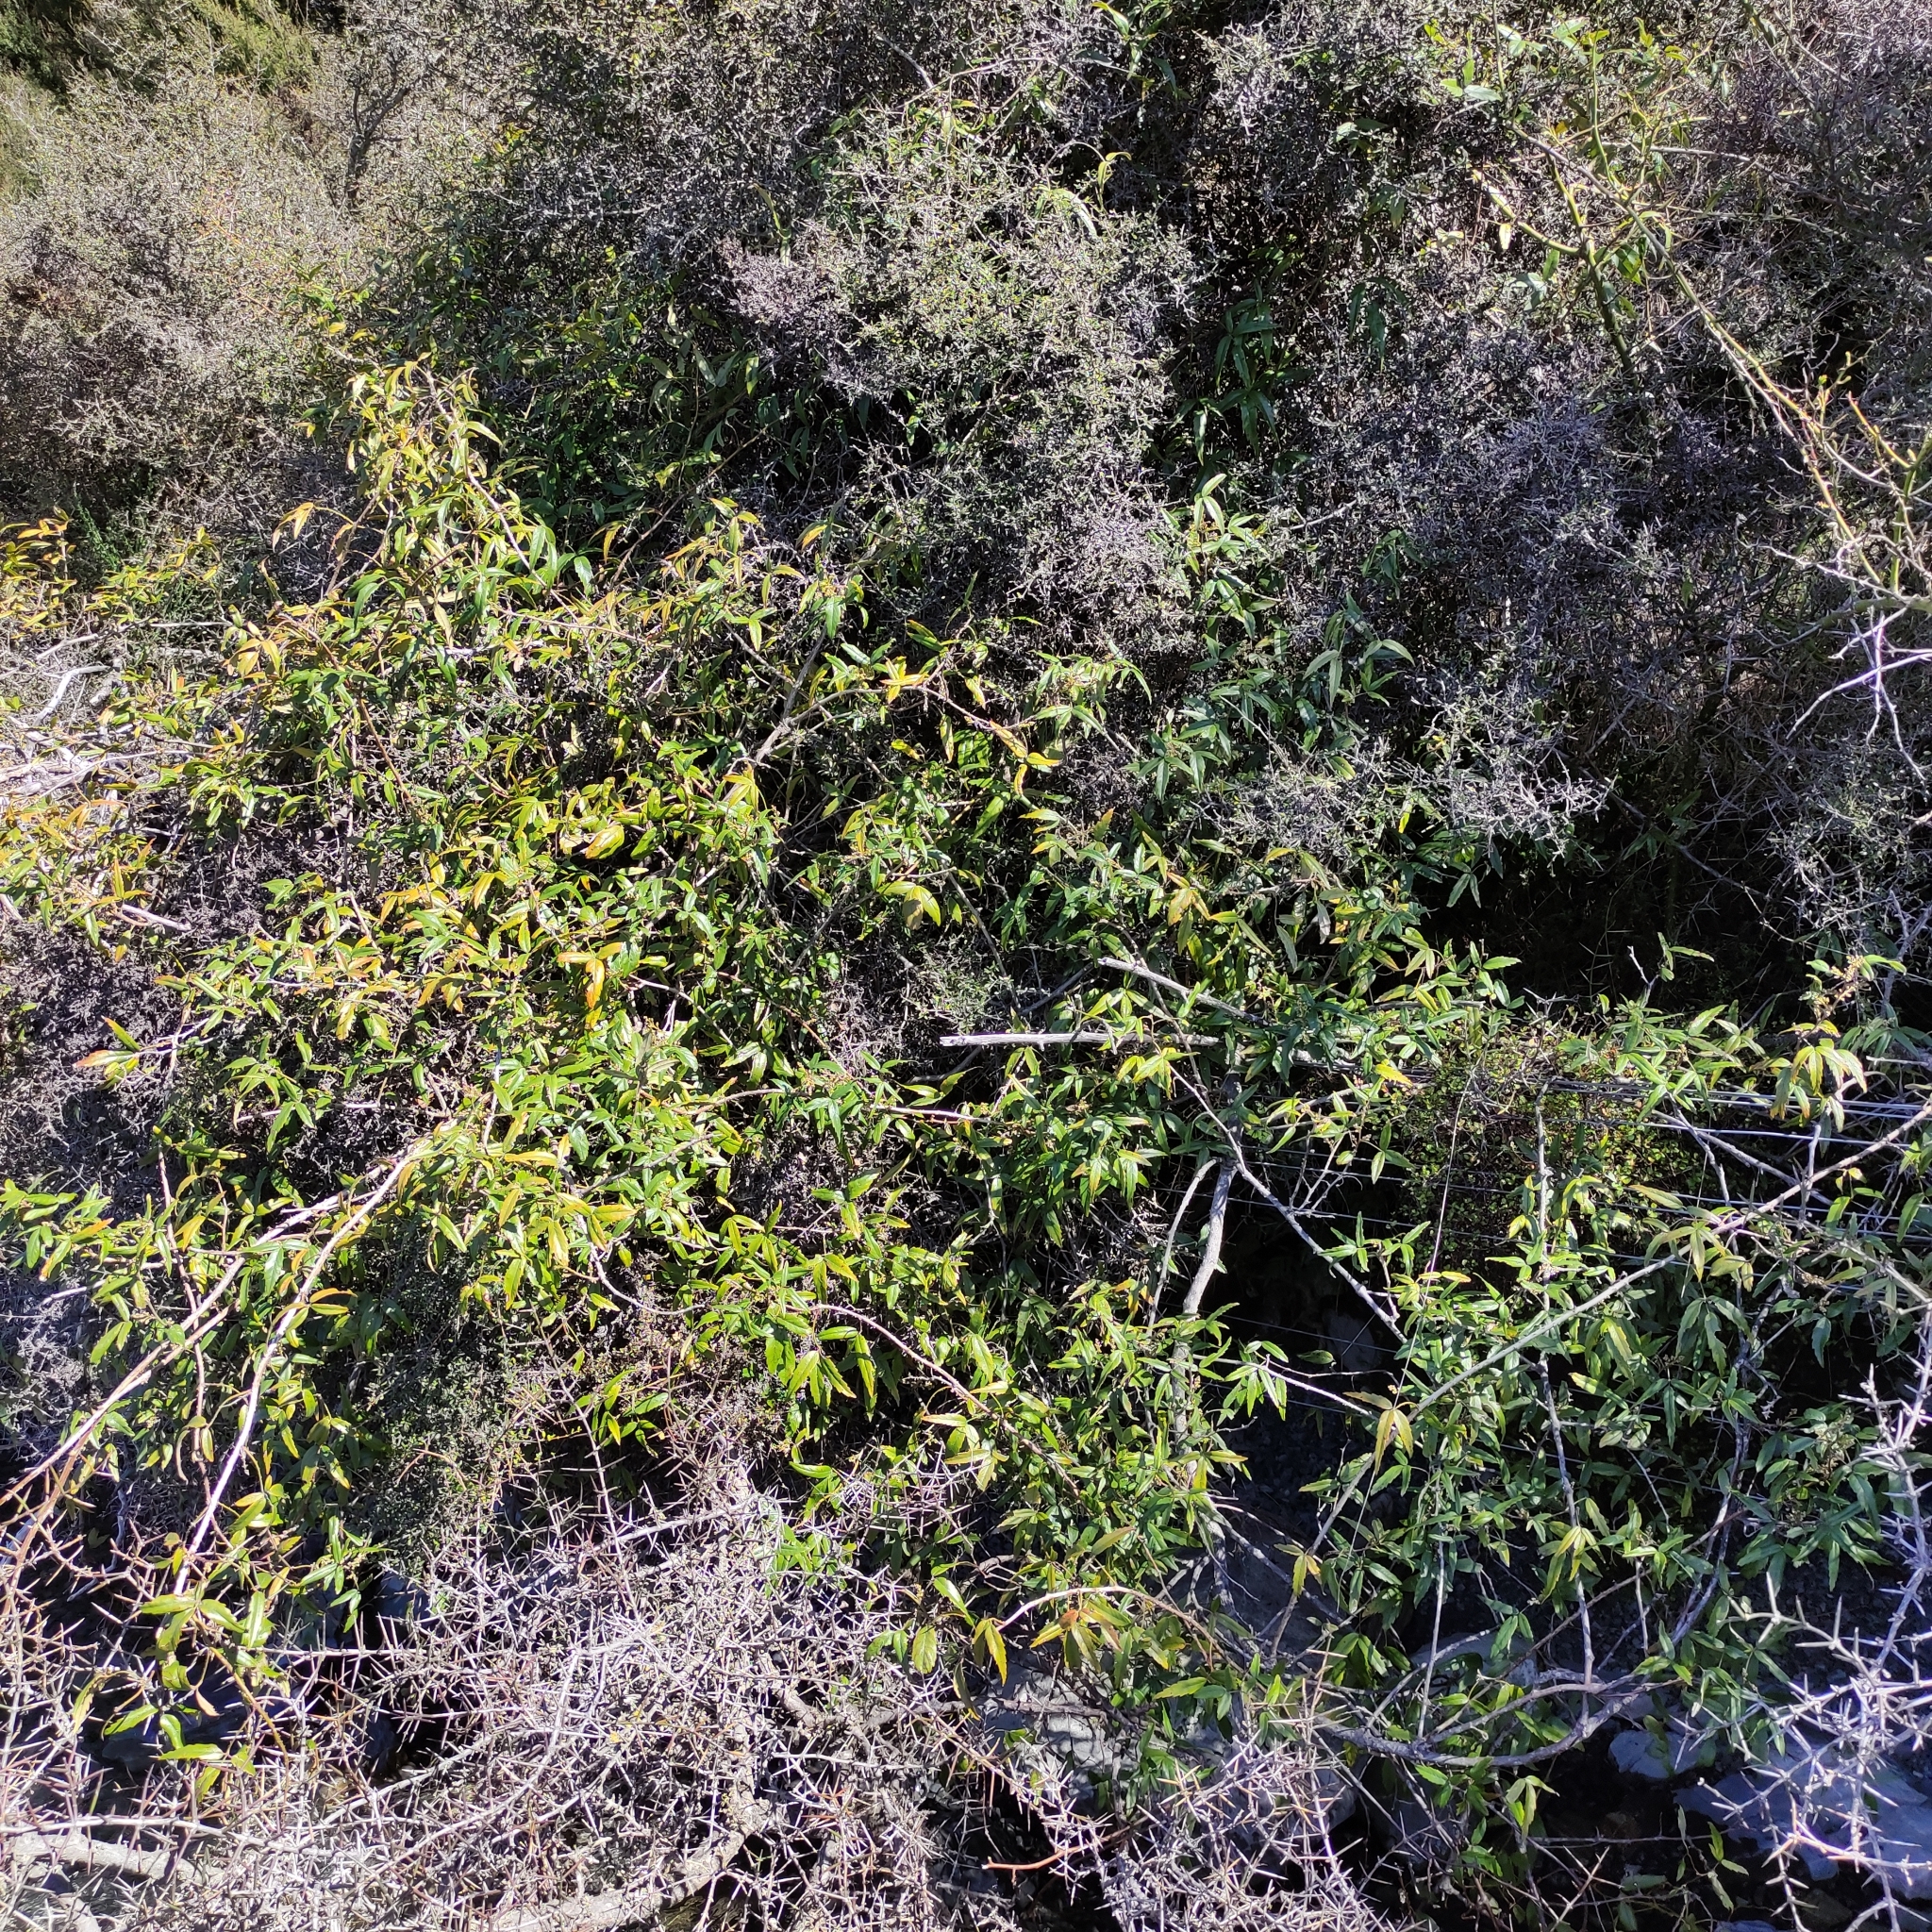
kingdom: Plantae
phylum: Tracheophyta
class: Magnoliopsida
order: Rosales
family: Rosaceae
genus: Rubus
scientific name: Rubus schmidelioides
